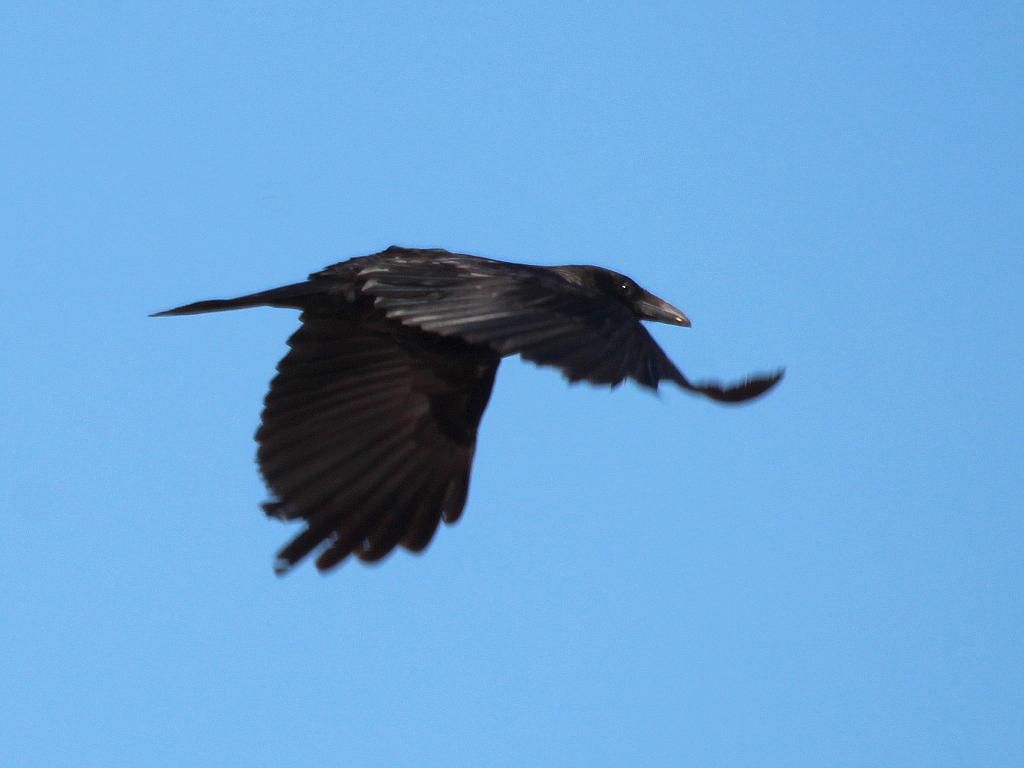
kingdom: Animalia
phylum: Chordata
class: Aves
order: Passeriformes
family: Corvidae
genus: Corvus
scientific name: Corvus
